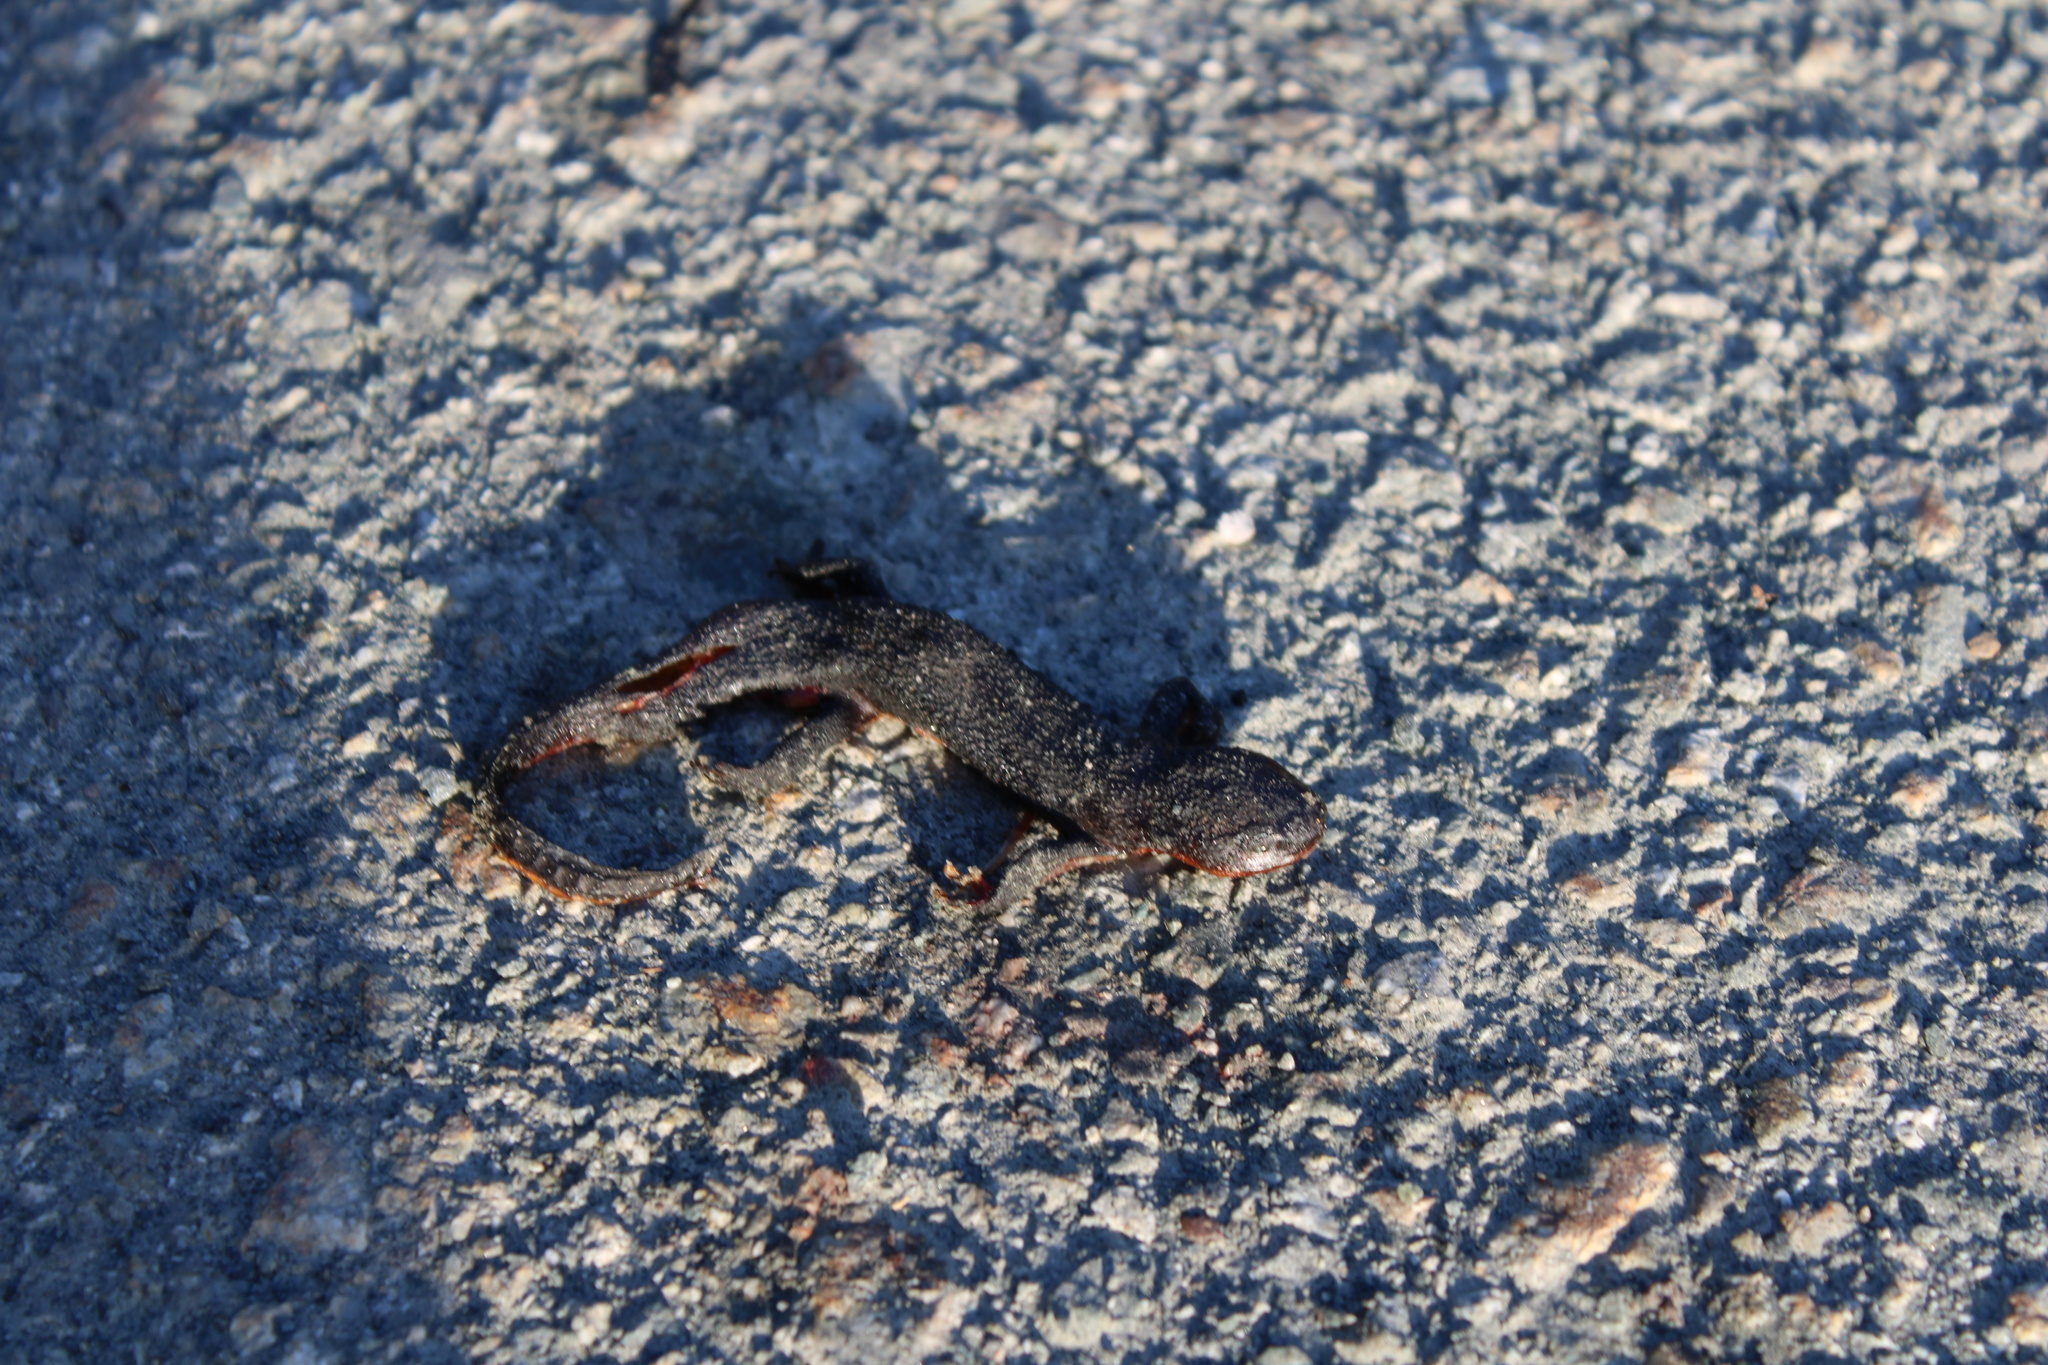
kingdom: Animalia
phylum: Chordata
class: Amphibia
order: Caudata
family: Salamandridae
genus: Taricha
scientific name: Taricha granulosa
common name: Roughskin newt
